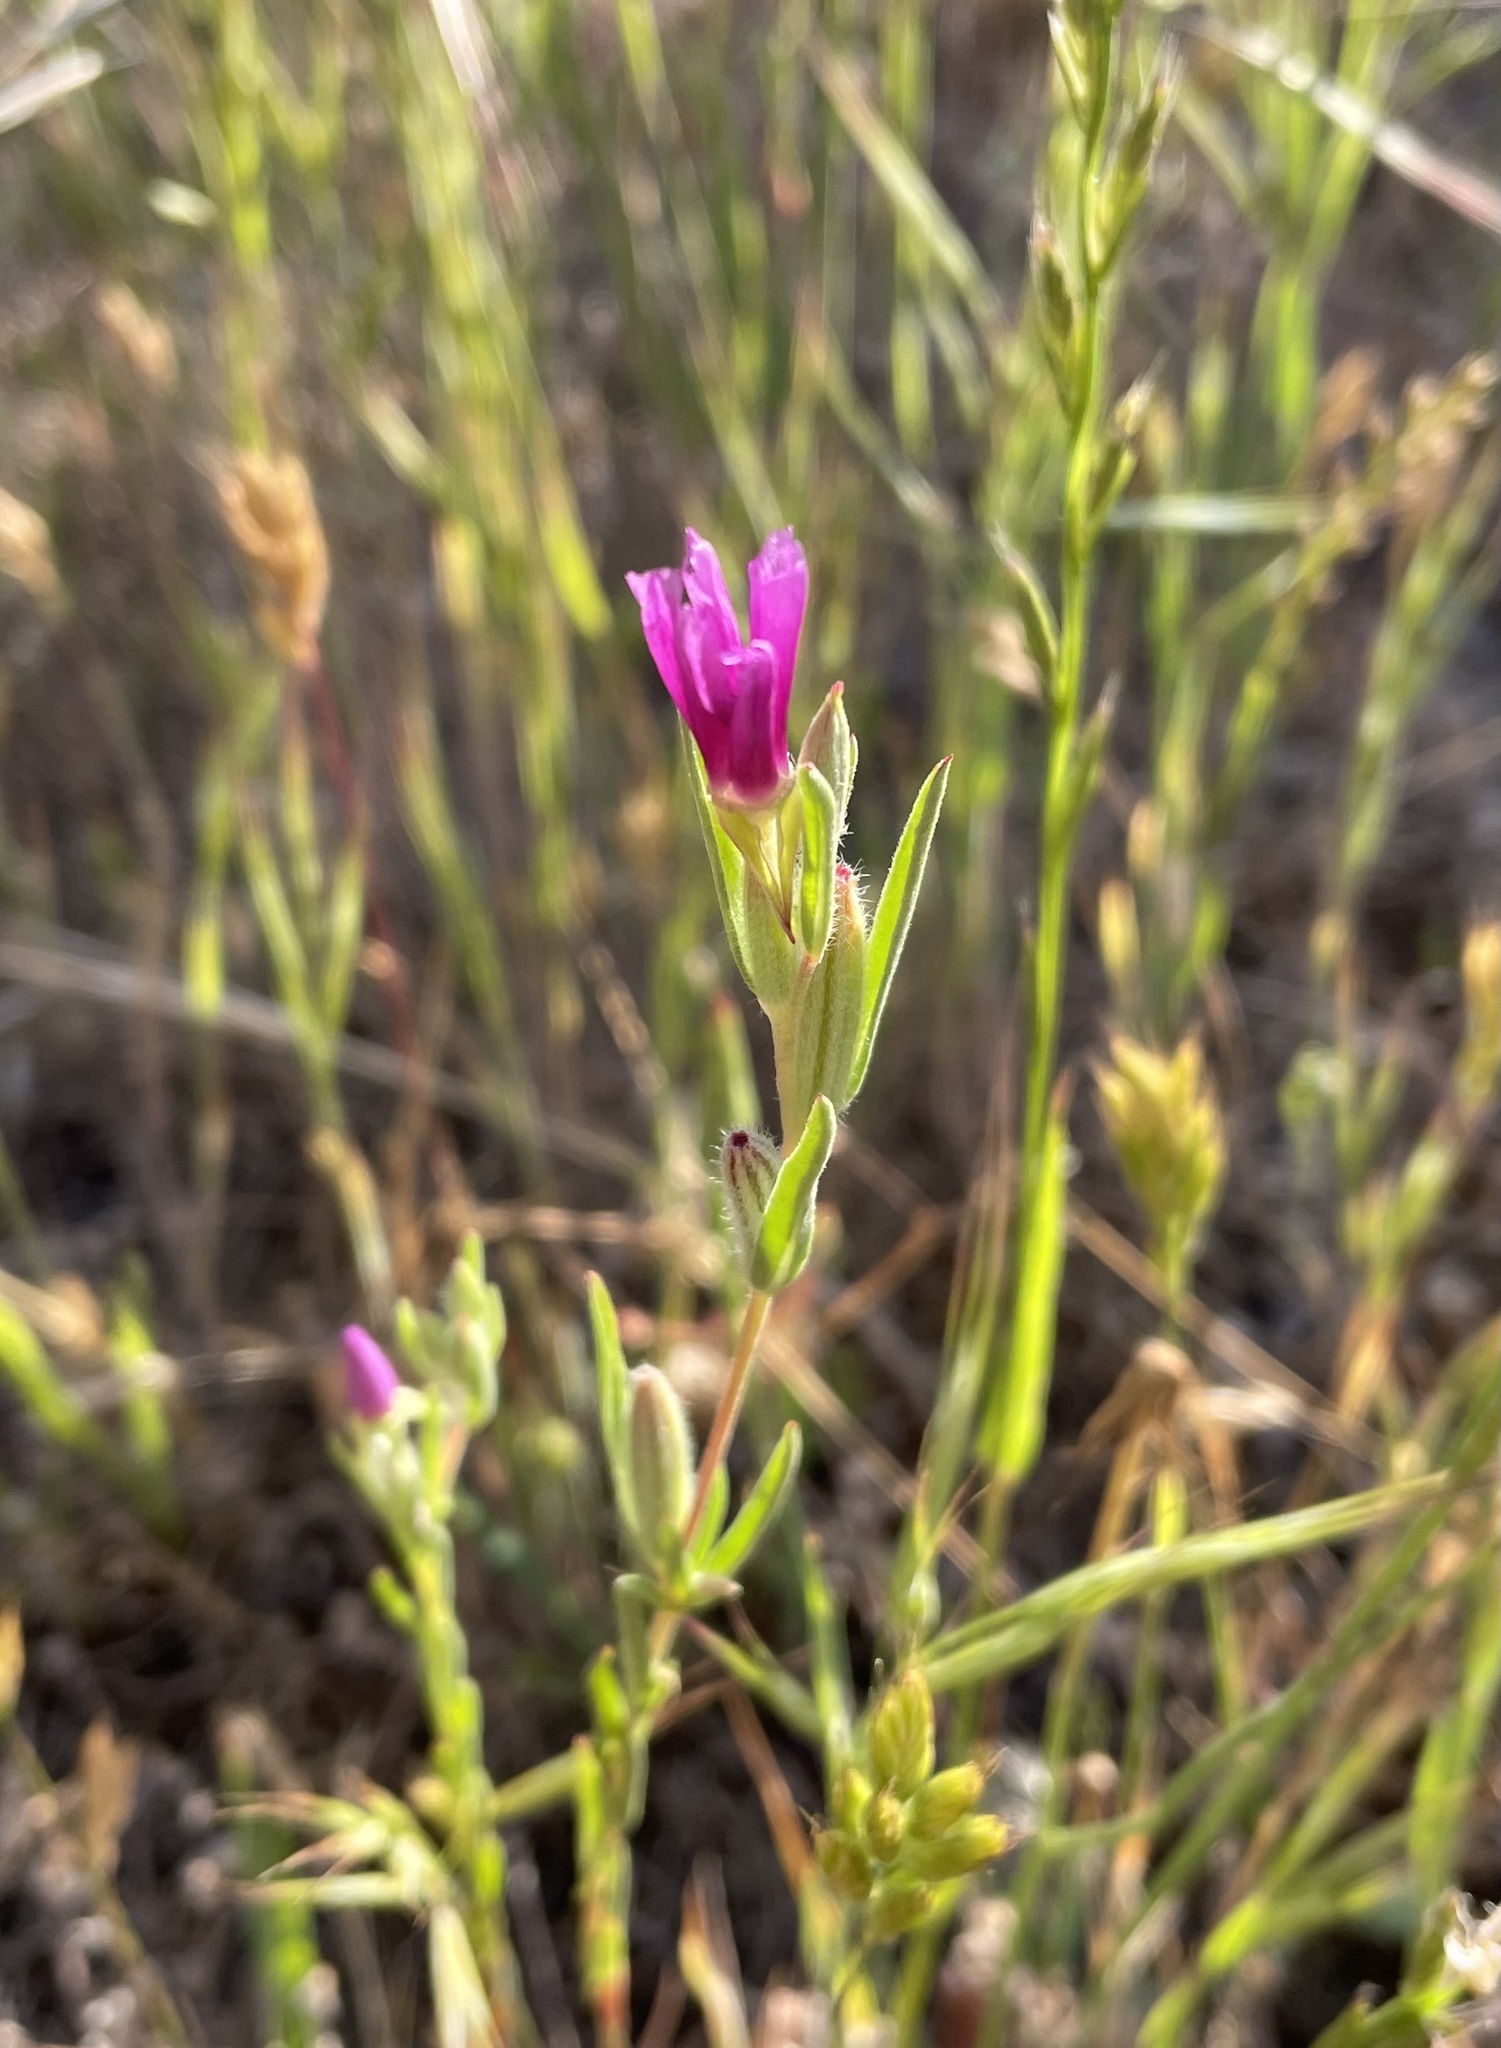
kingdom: Plantae
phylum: Tracheophyta
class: Magnoliopsida
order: Myrtales
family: Onagraceae
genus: Clarkia
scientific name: Clarkia purpurea
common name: Purple clarkia
